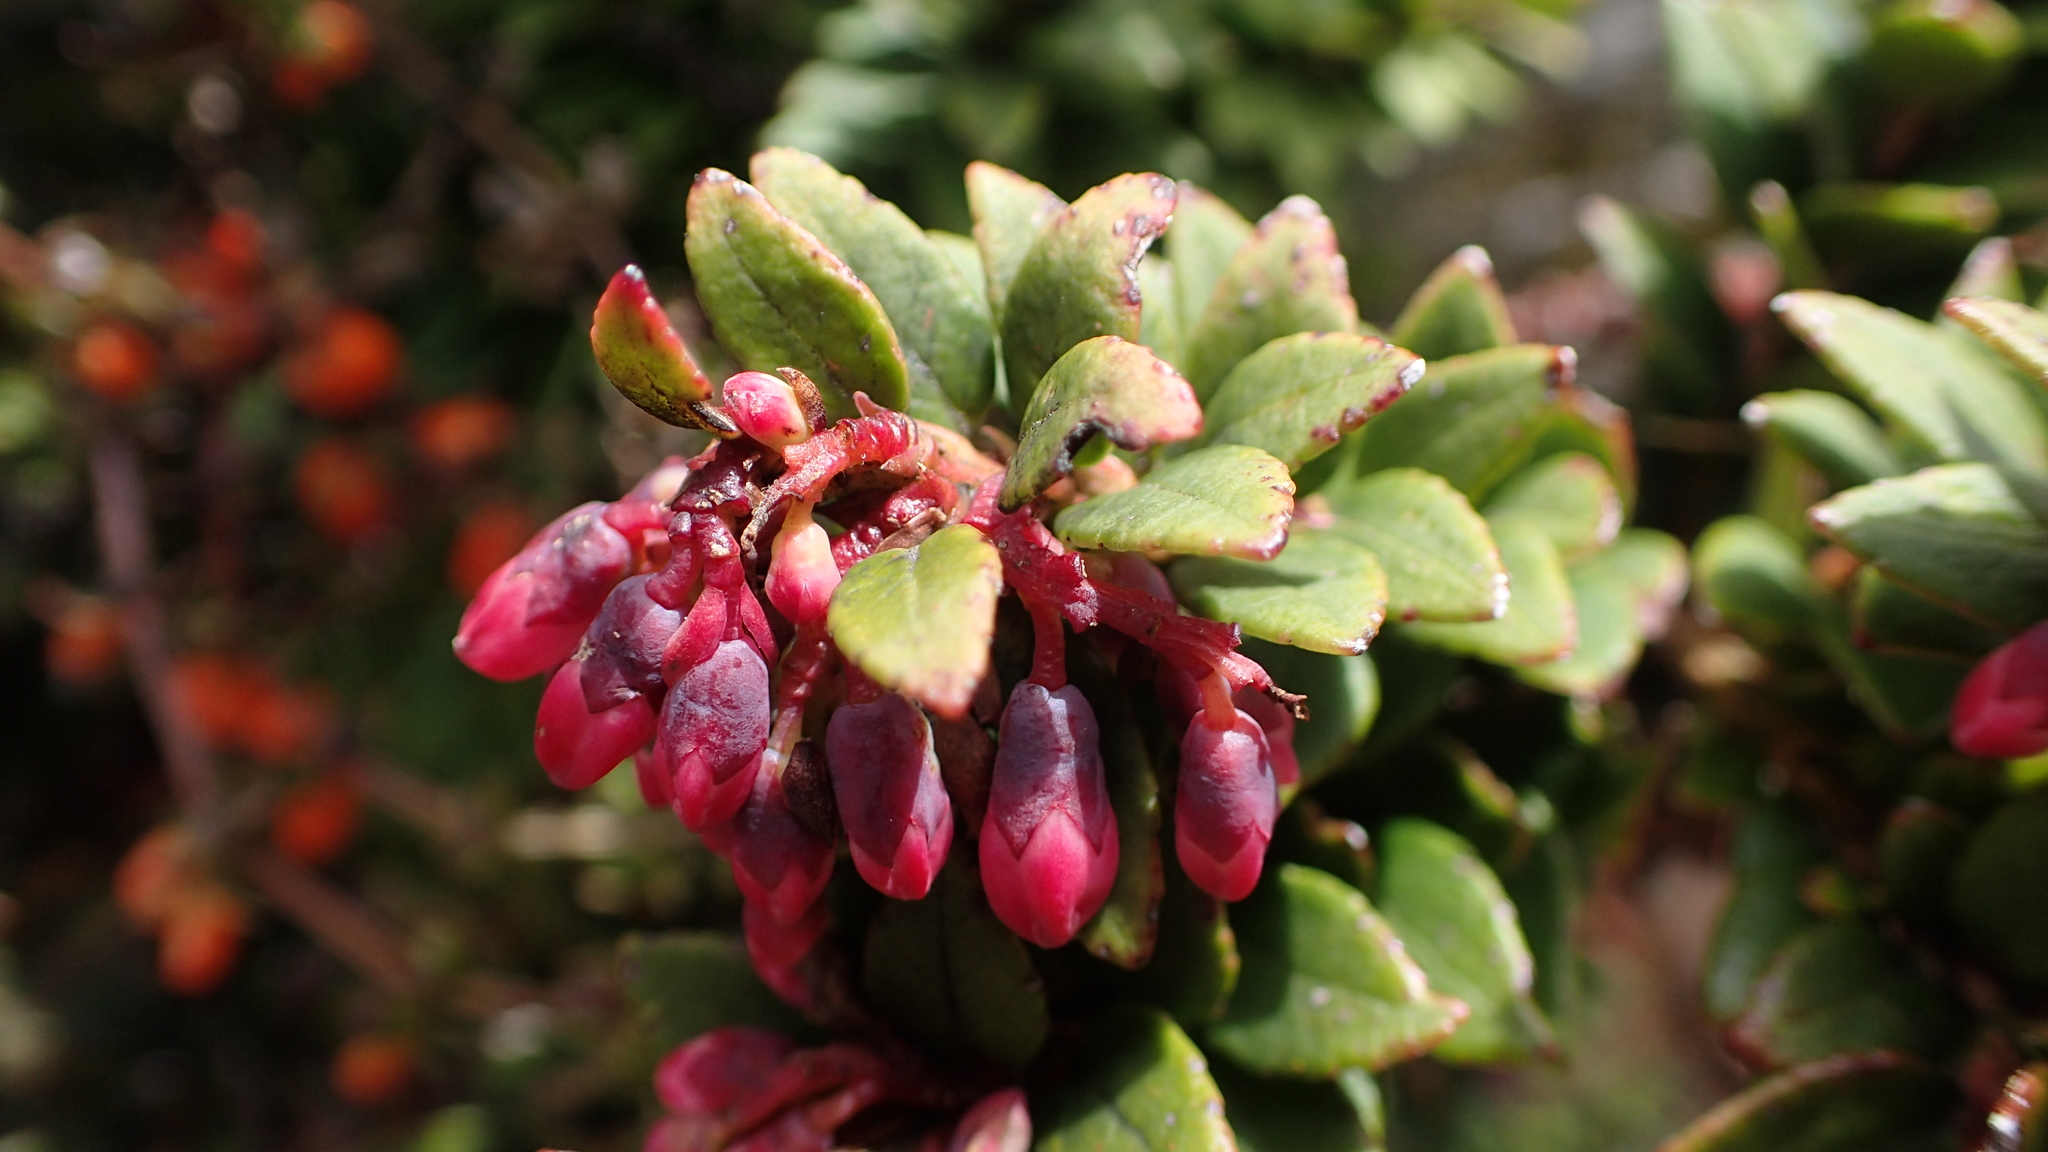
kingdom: Plantae
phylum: Tracheophyta
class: Magnoliopsida
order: Ericales
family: Ericaceae
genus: Vaccinium
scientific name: Vaccinium floribundum
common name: Colombian blueberry
